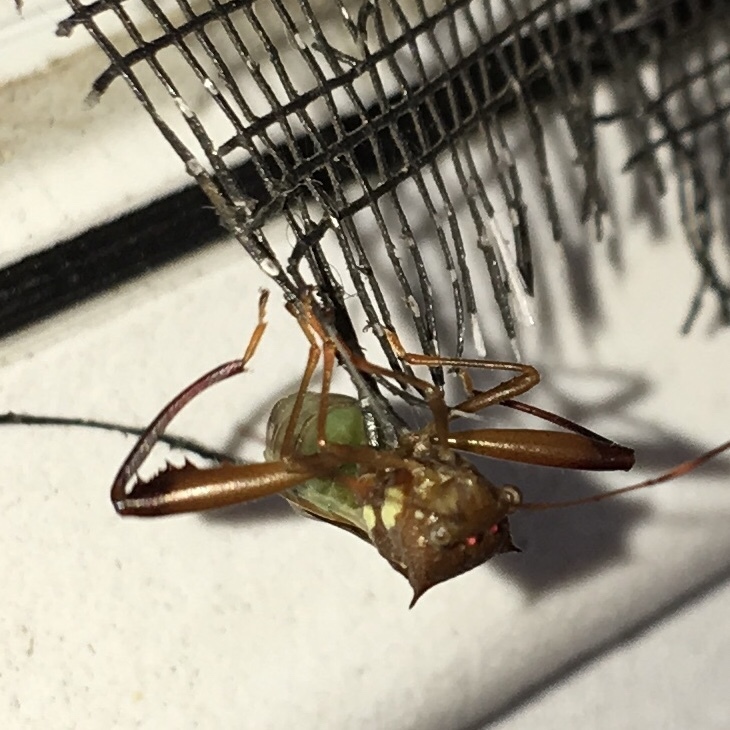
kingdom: Animalia
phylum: Arthropoda
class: Insecta
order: Hemiptera
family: Alydidae
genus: Hyalymenus
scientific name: Hyalymenus tarsatus
